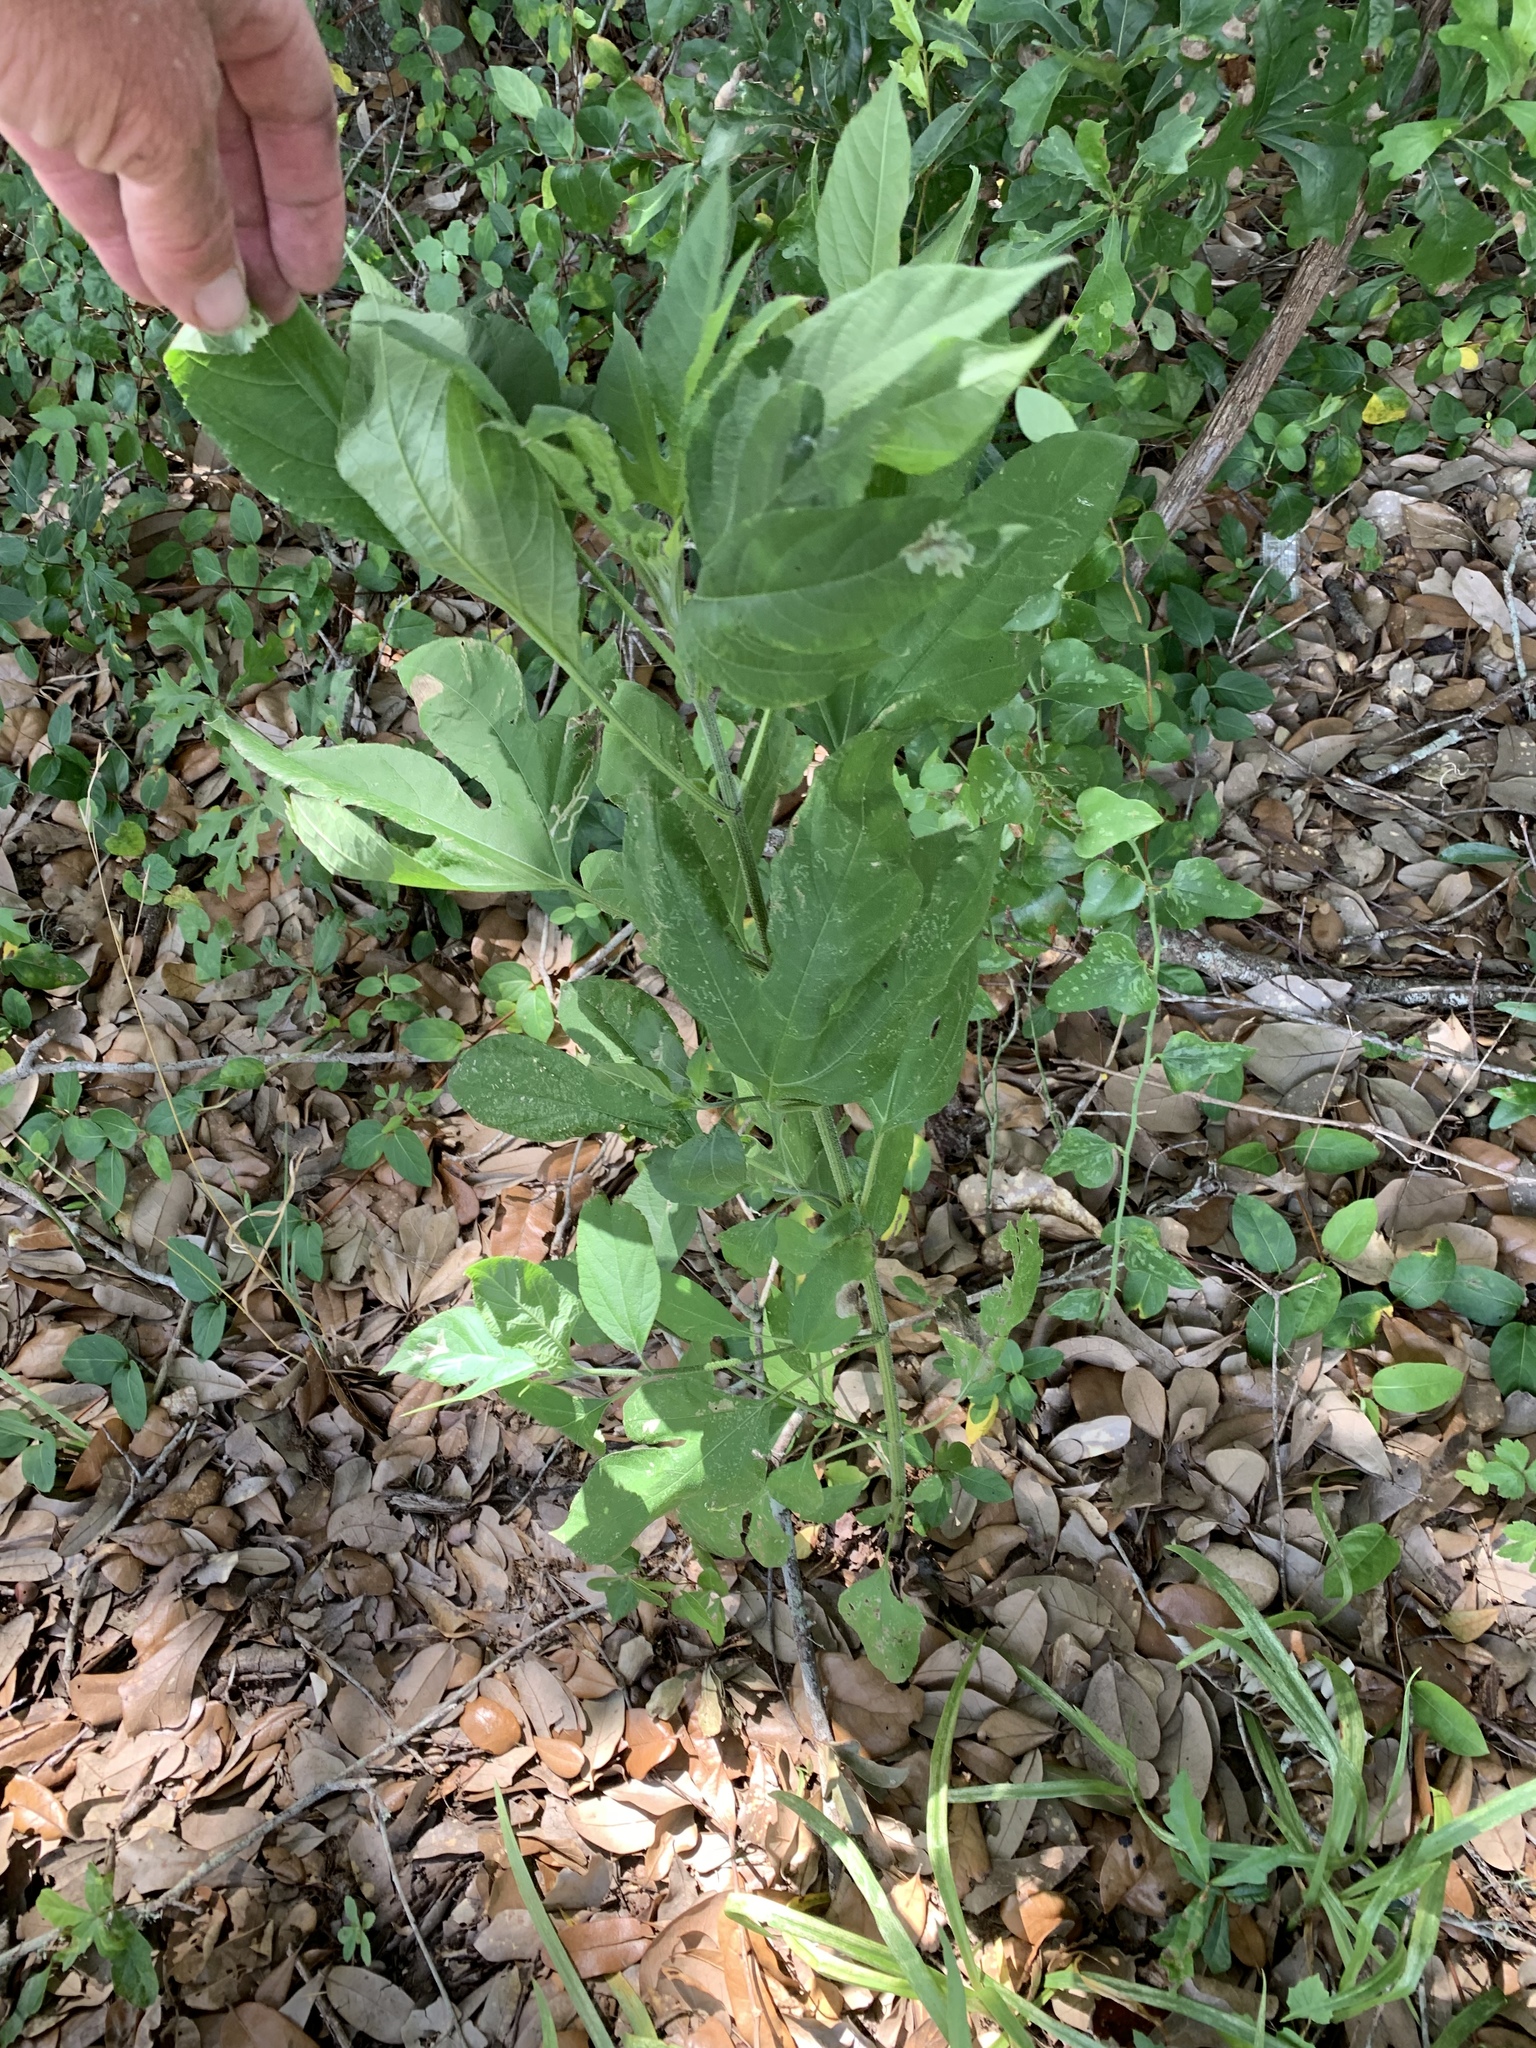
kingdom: Plantae
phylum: Tracheophyta
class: Magnoliopsida
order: Asterales
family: Asteraceae
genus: Ambrosia
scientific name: Ambrosia trifida
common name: Giant ragweed
